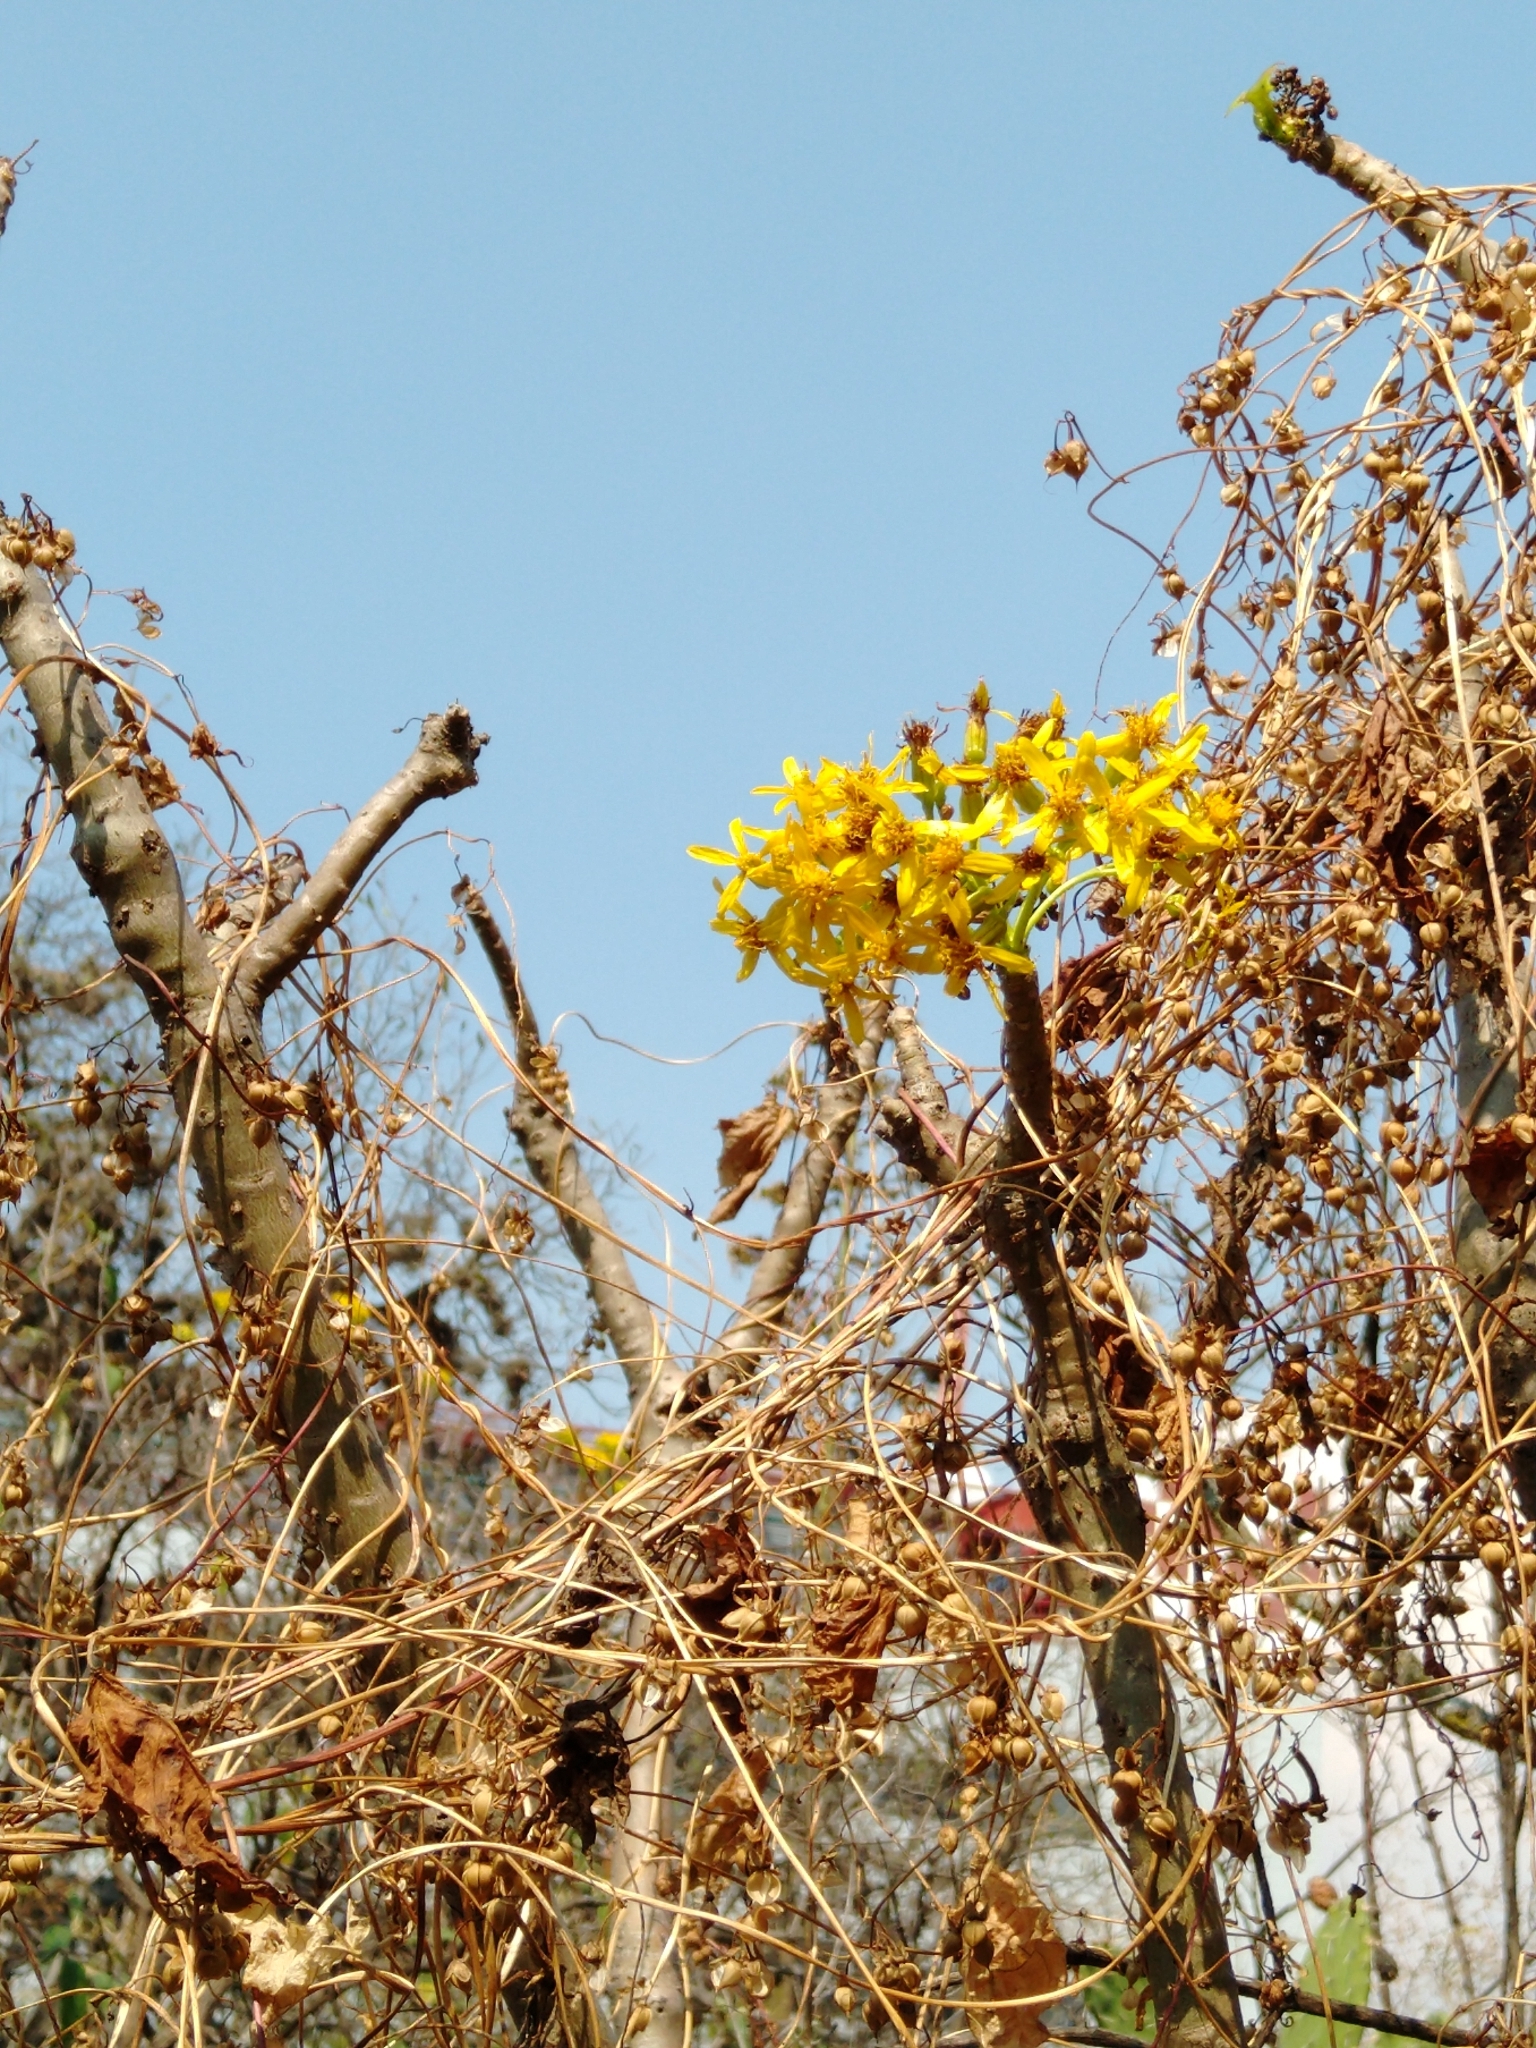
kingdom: Plantae
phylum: Tracheophyta
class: Magnoliopsida
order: Asterales
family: Asteraceae
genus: Pittocaulon
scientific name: Pittocaulon praecox
